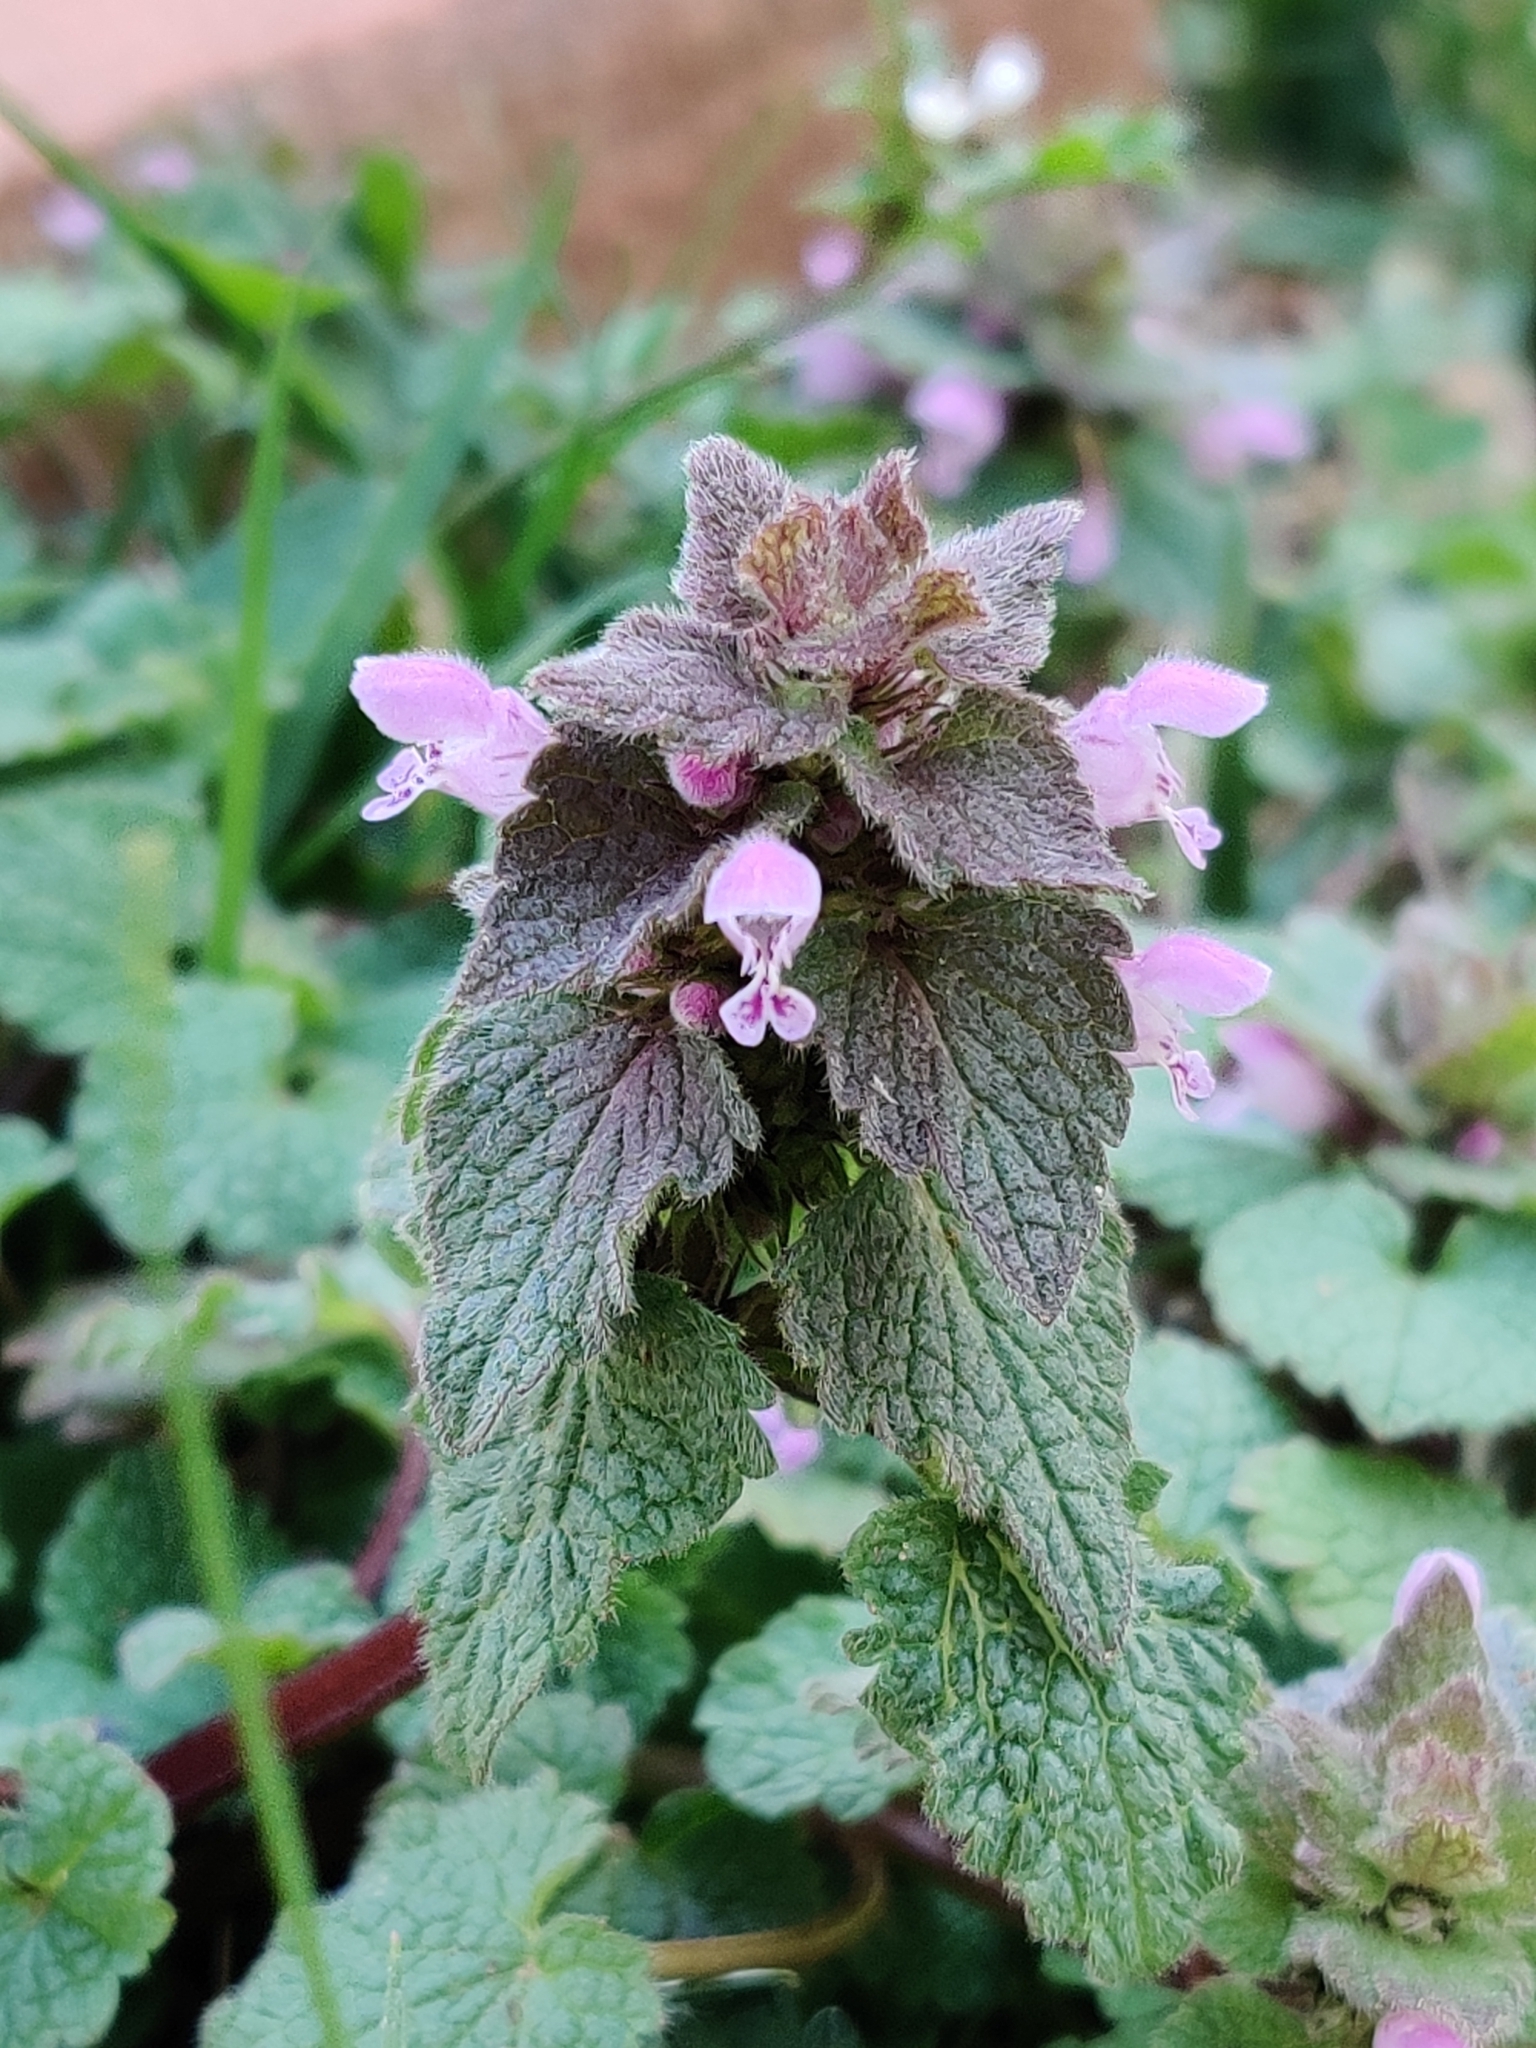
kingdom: Plantae
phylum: Tracheophyta
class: Magnoliopsida
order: Lamiales
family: Lamiaceae
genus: Lamium
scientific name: Lamium purpureum
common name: Red dead-nettle
